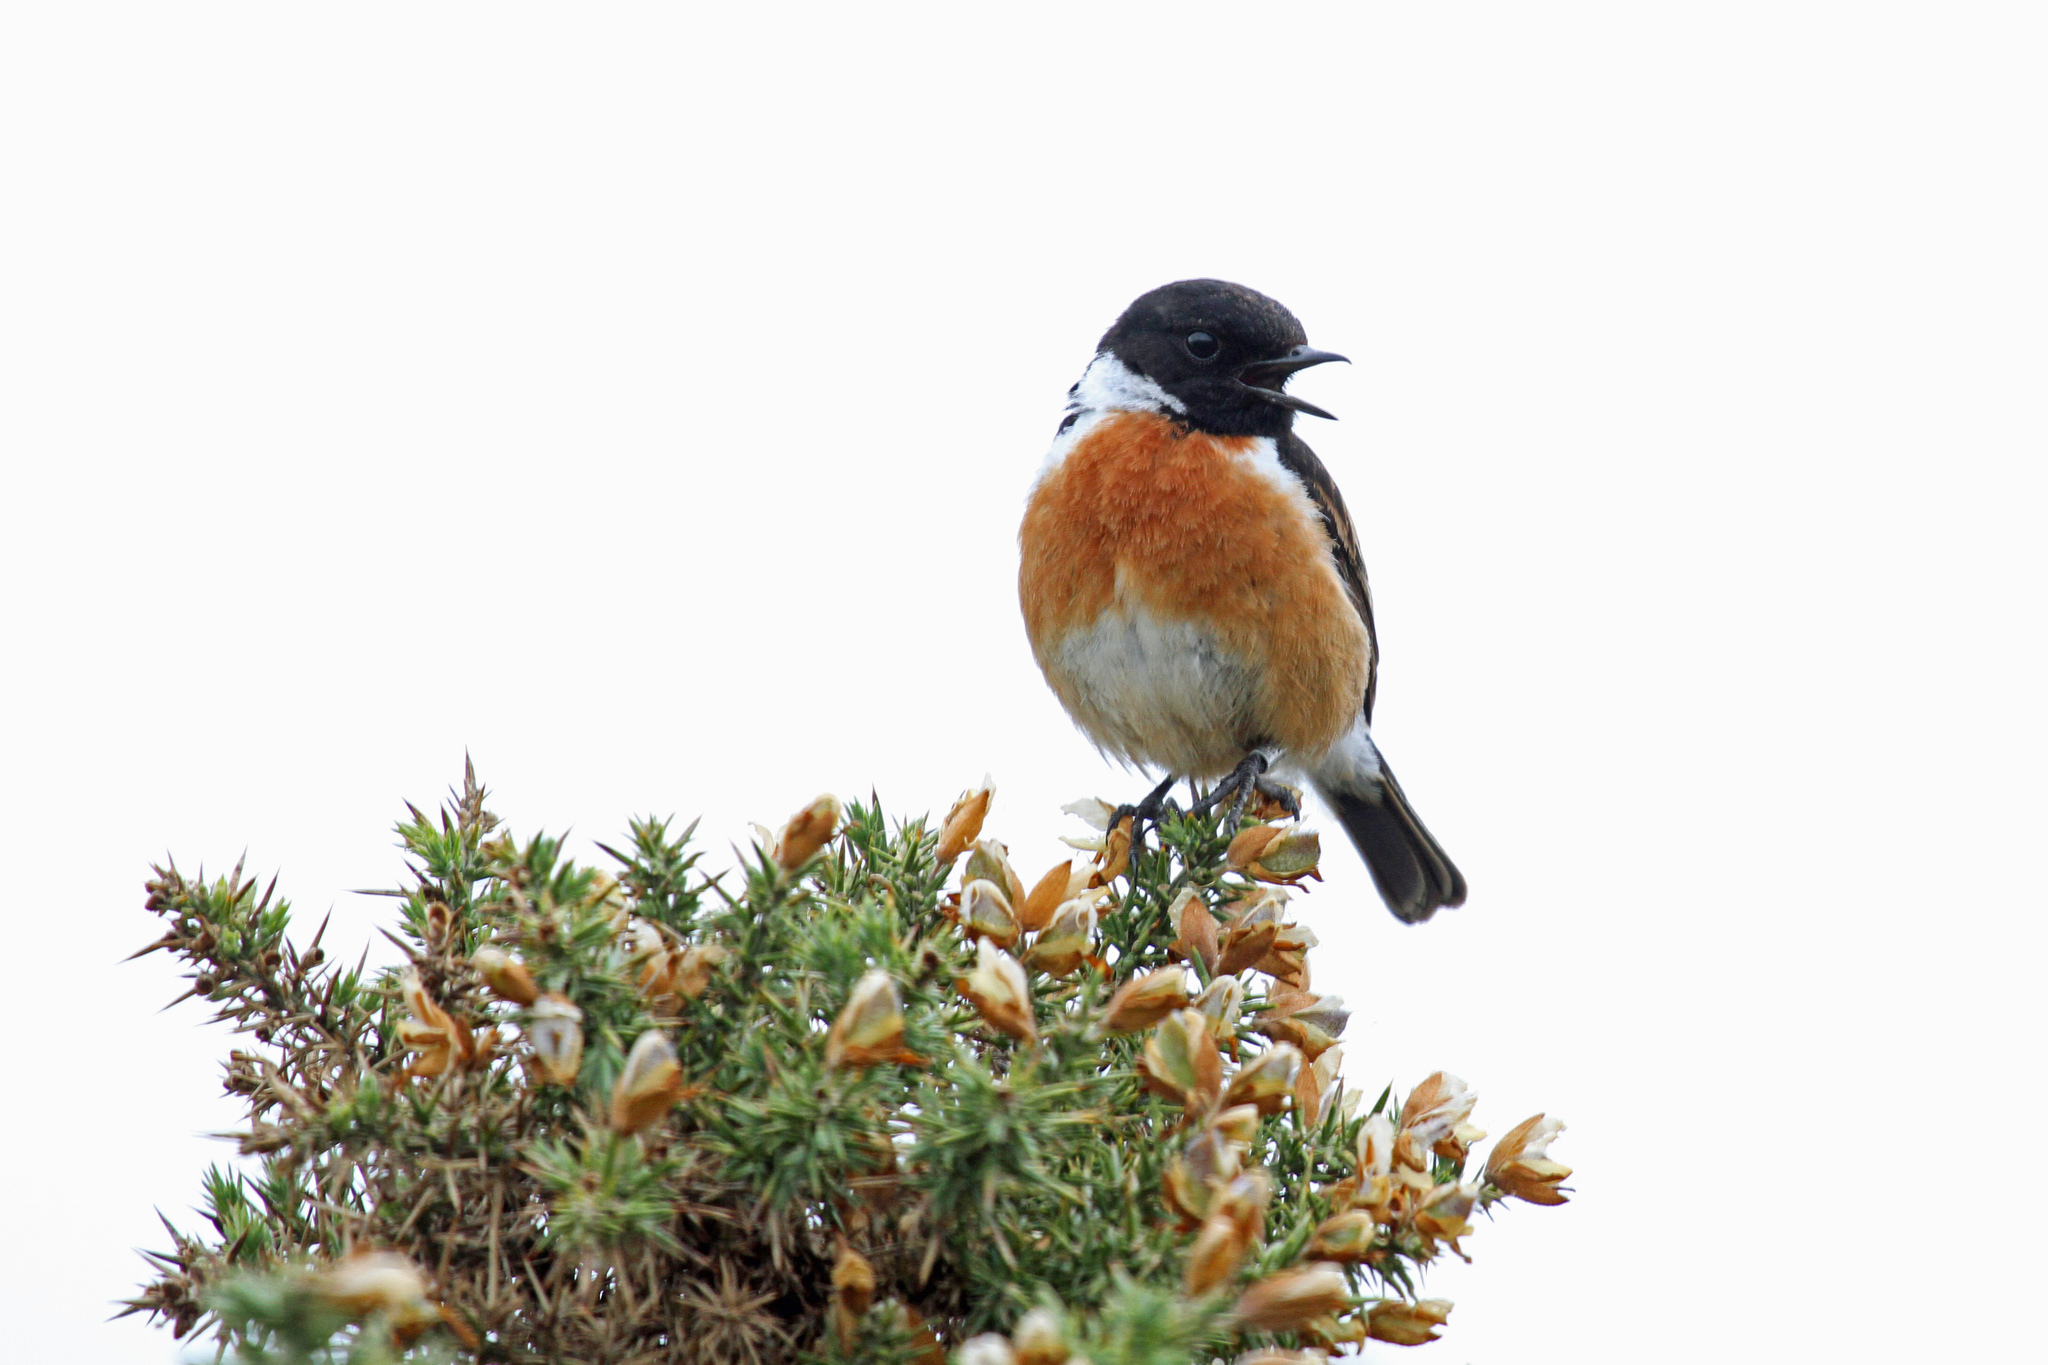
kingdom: Animalia
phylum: Chordata
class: Aves
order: Passeriformes
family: Muscicapidae
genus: Saxicola
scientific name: Saxicola rubicola
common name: European stonechat
